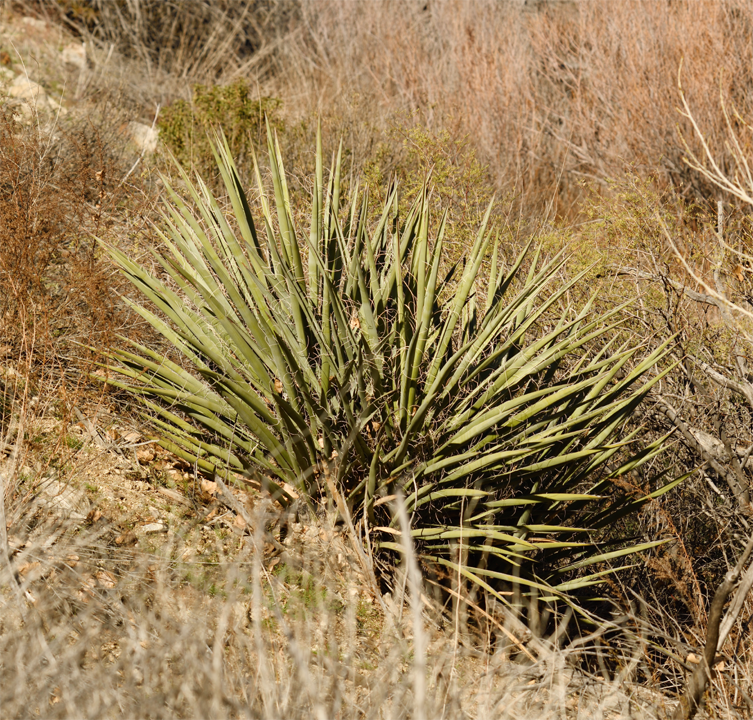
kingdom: Plantae
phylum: Tracheophyta
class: Liliopsida
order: Asparagales
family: Asparagaceae
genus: Yucca
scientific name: Yucca schidigera
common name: Mojave yucca
